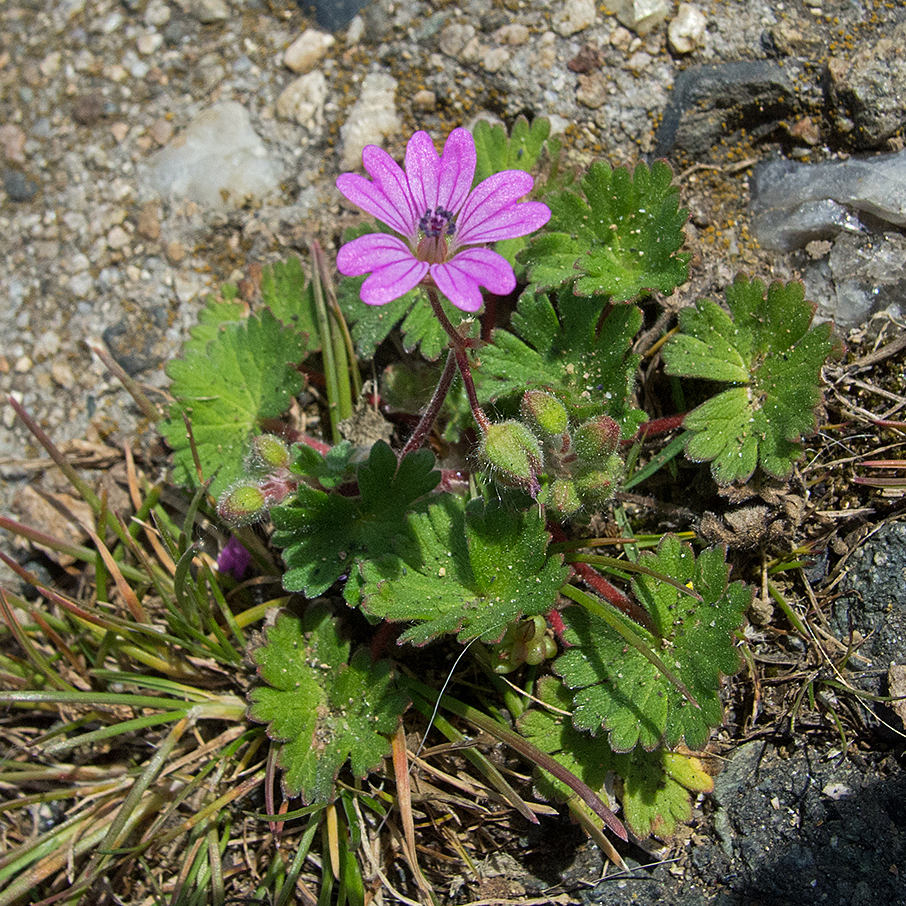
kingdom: Plantae
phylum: Tracheophyta
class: Magnoliopsida
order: Geraniales
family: Geraniaceae
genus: Geranium
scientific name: Geranium molle
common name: Dove's-foot crane's-bill
